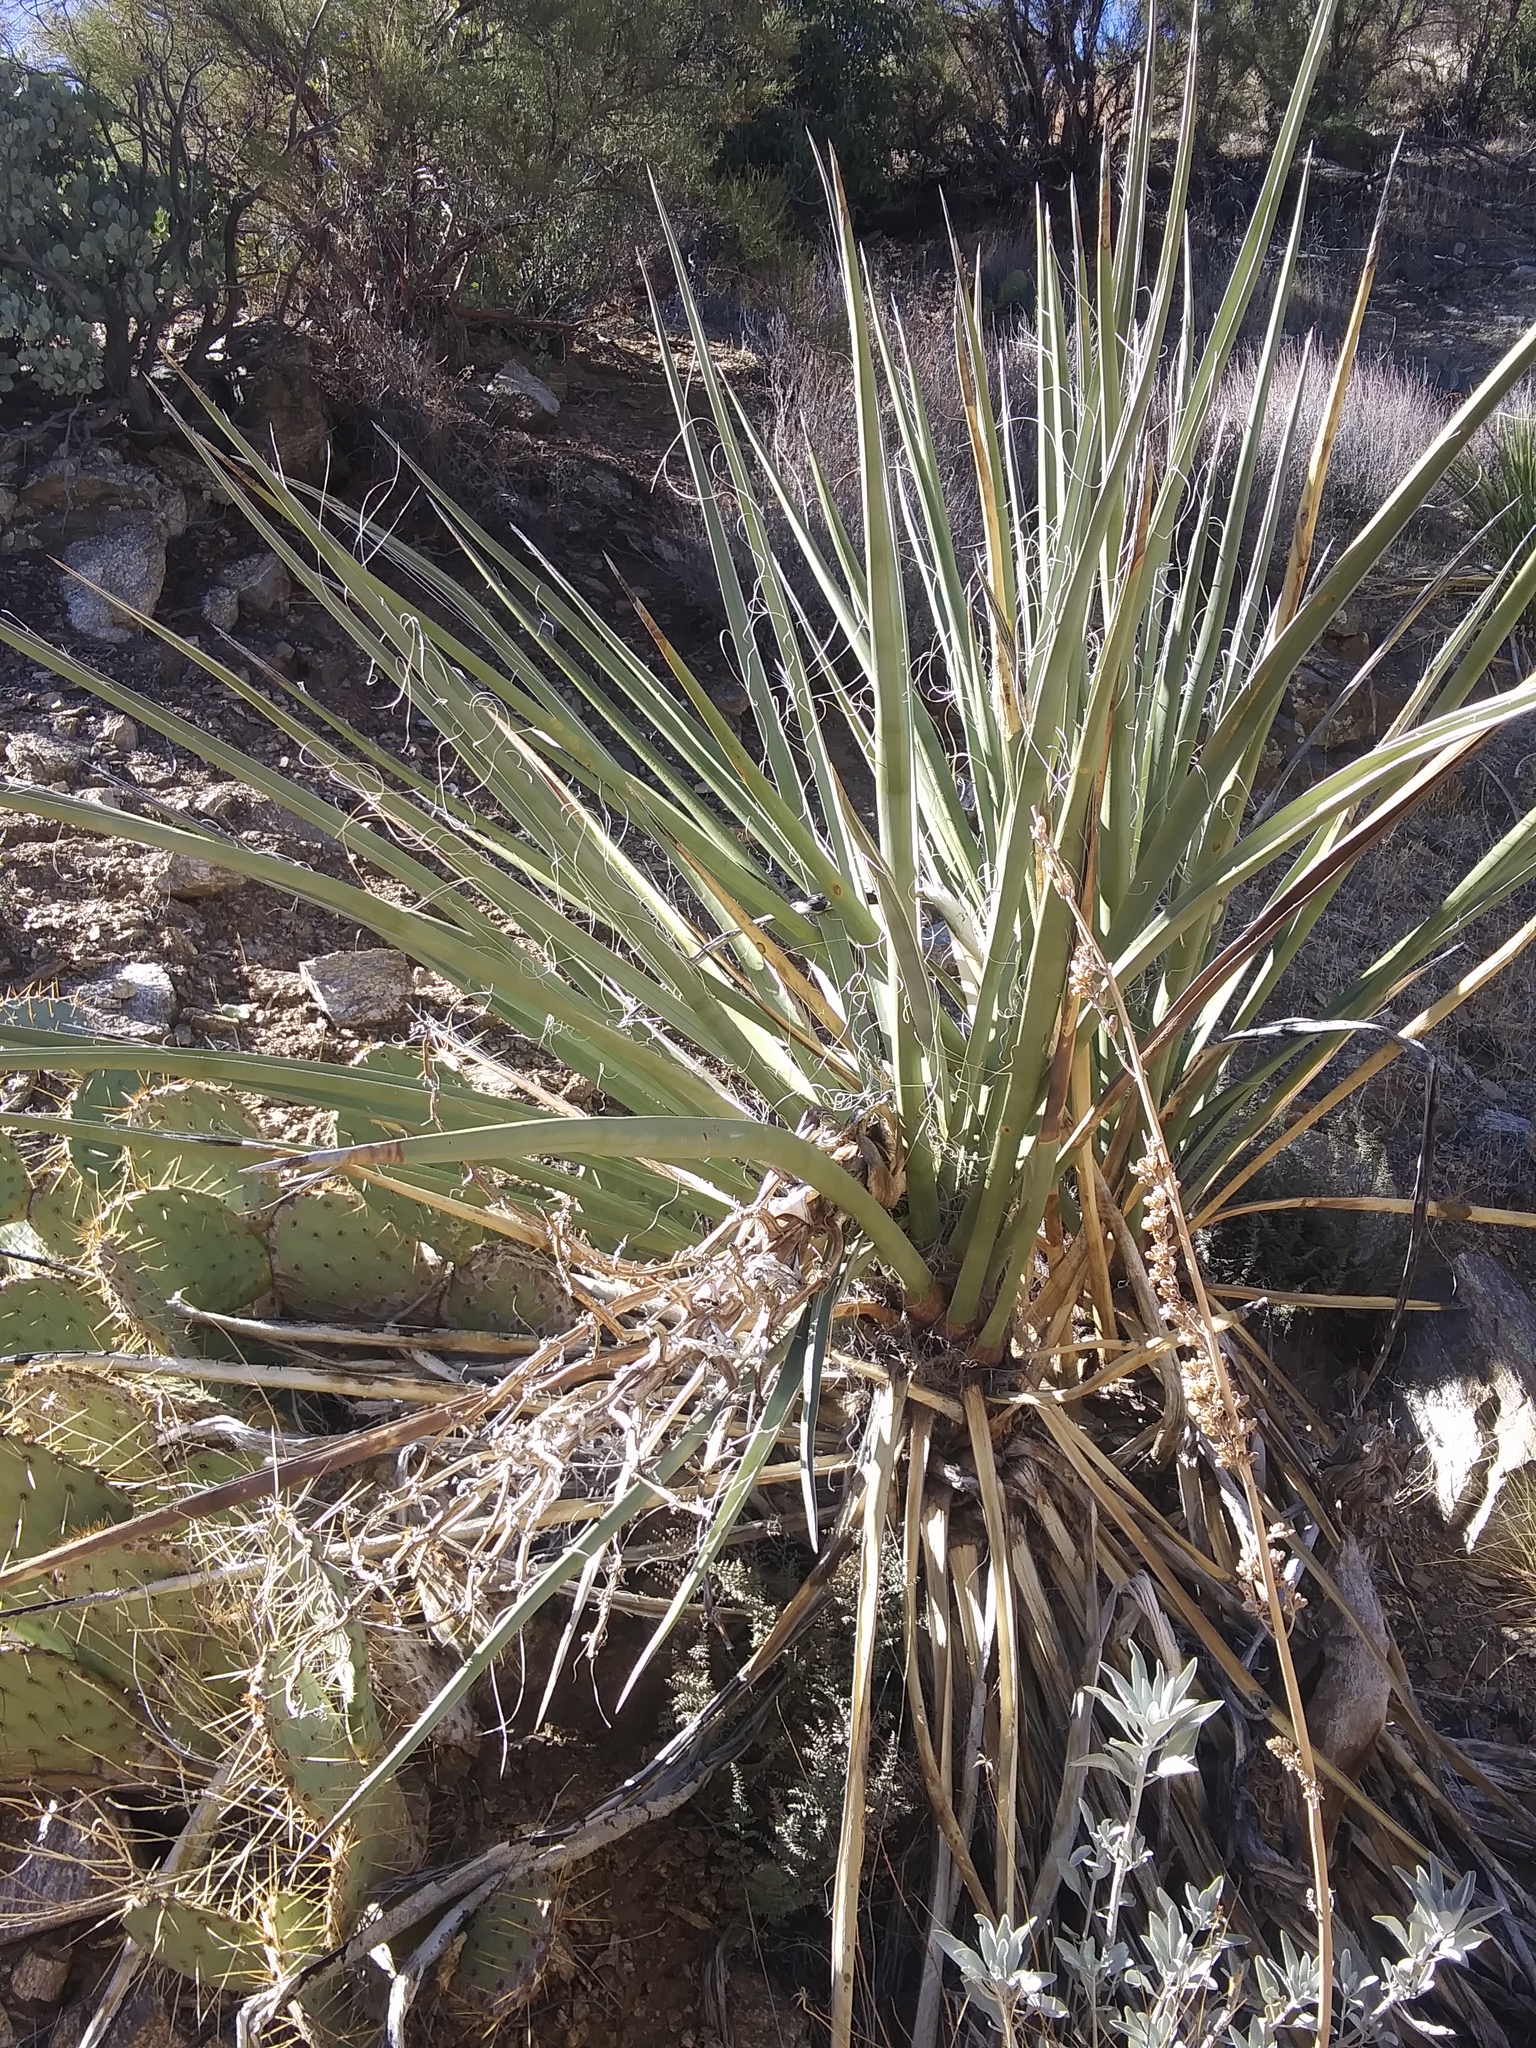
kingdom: Plantae
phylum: Tracheophyta
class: Liliopsida
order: Asparagales
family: Asparagaceae
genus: Yucca
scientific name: Yucca schidigera
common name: Mojave yucca
